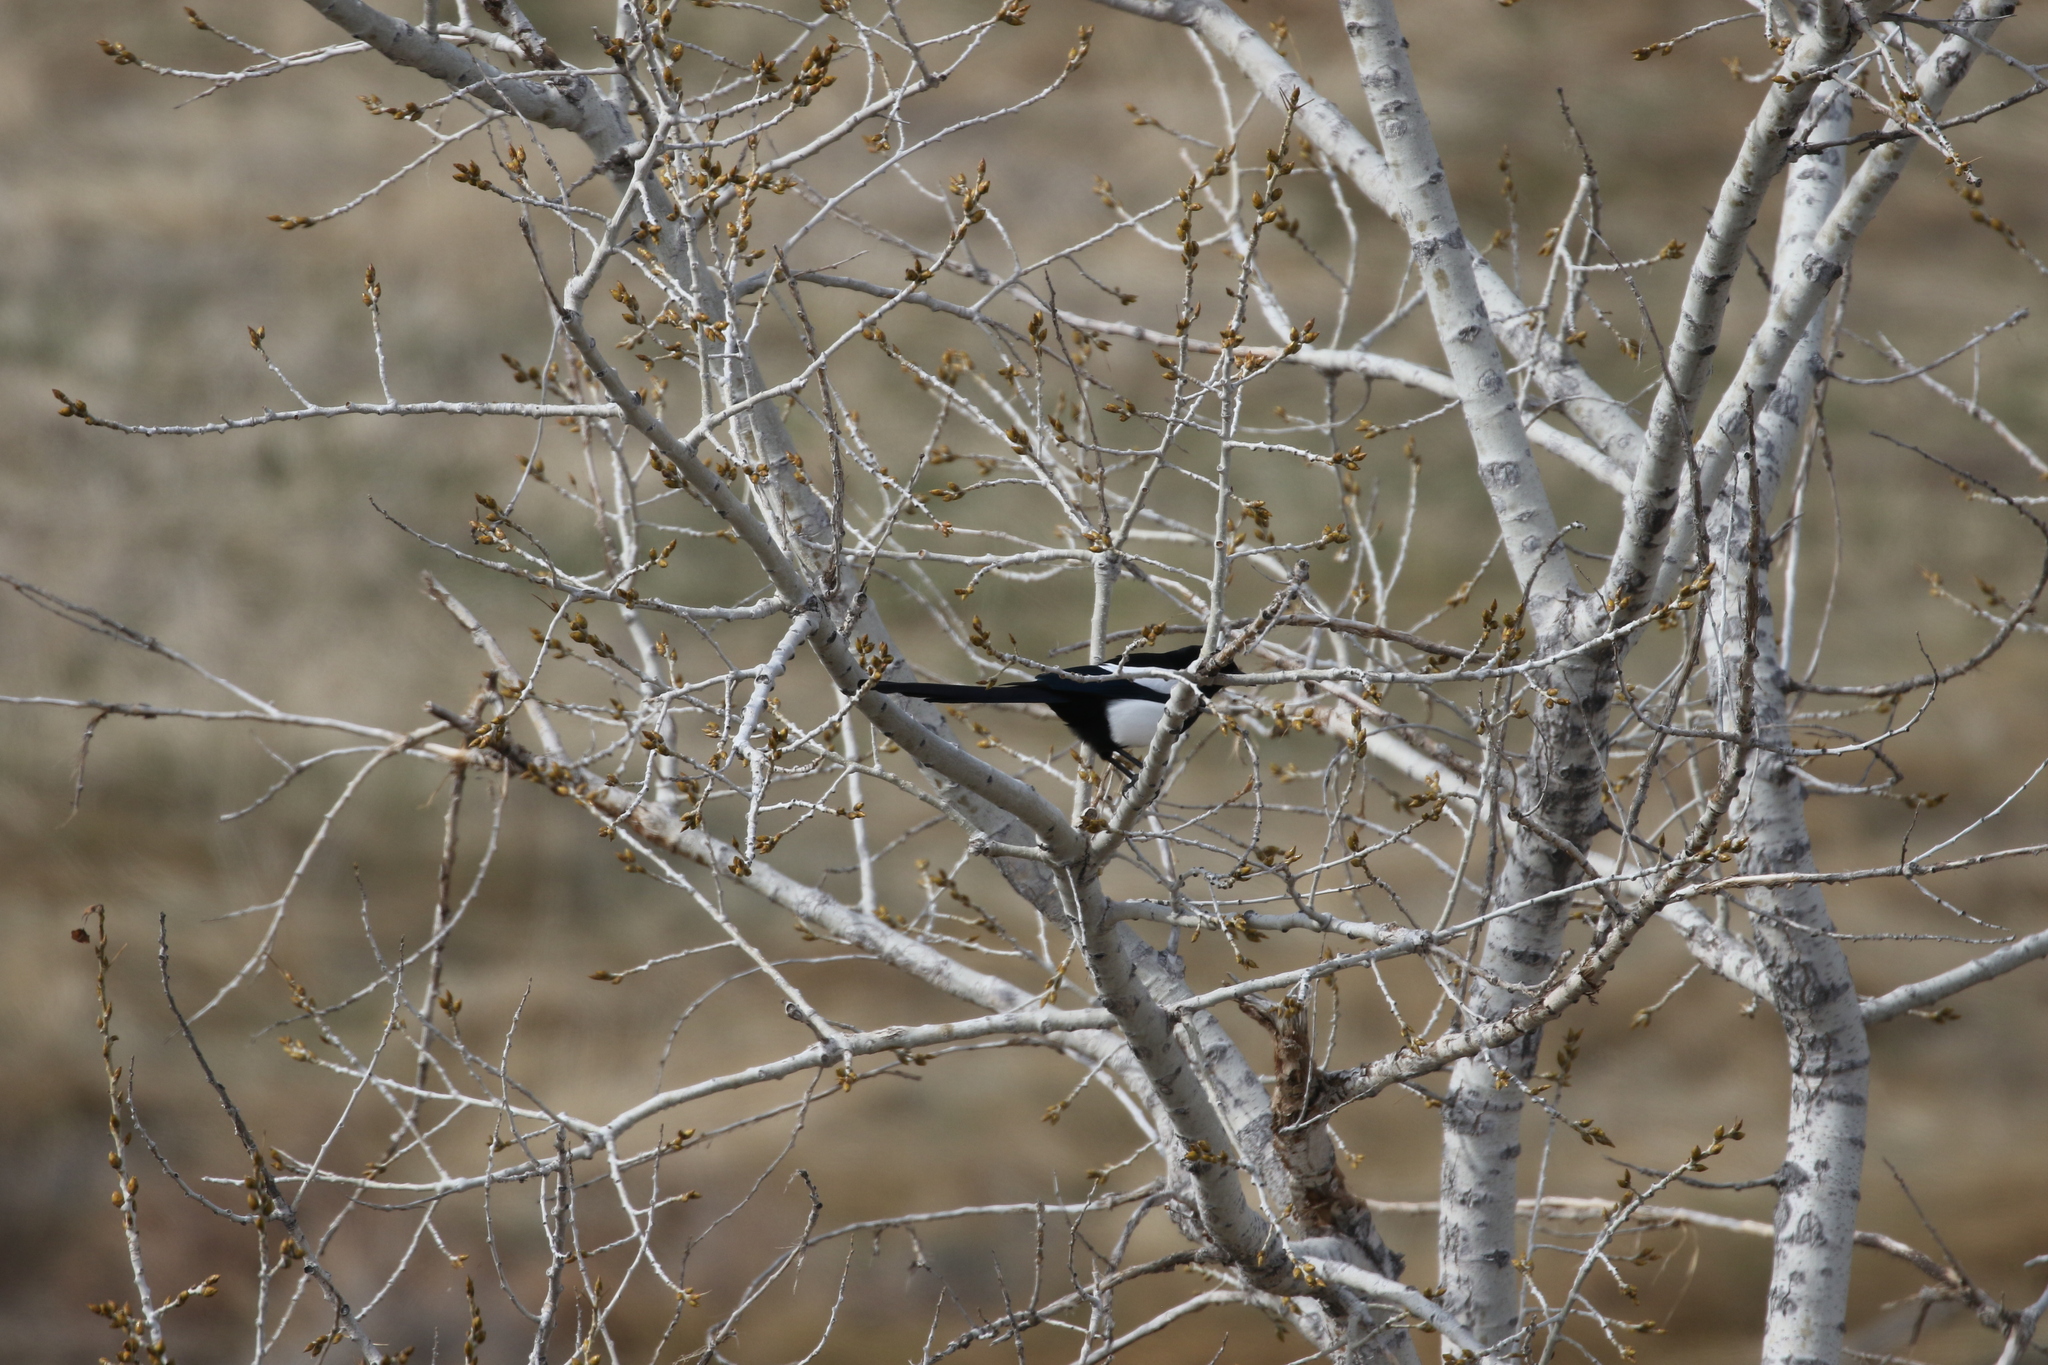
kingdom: Animalia
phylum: Chordata
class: Aves
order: Passeriformes
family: Corvidae
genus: Pica
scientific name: Pica hudsonia
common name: Black-billed magpie
